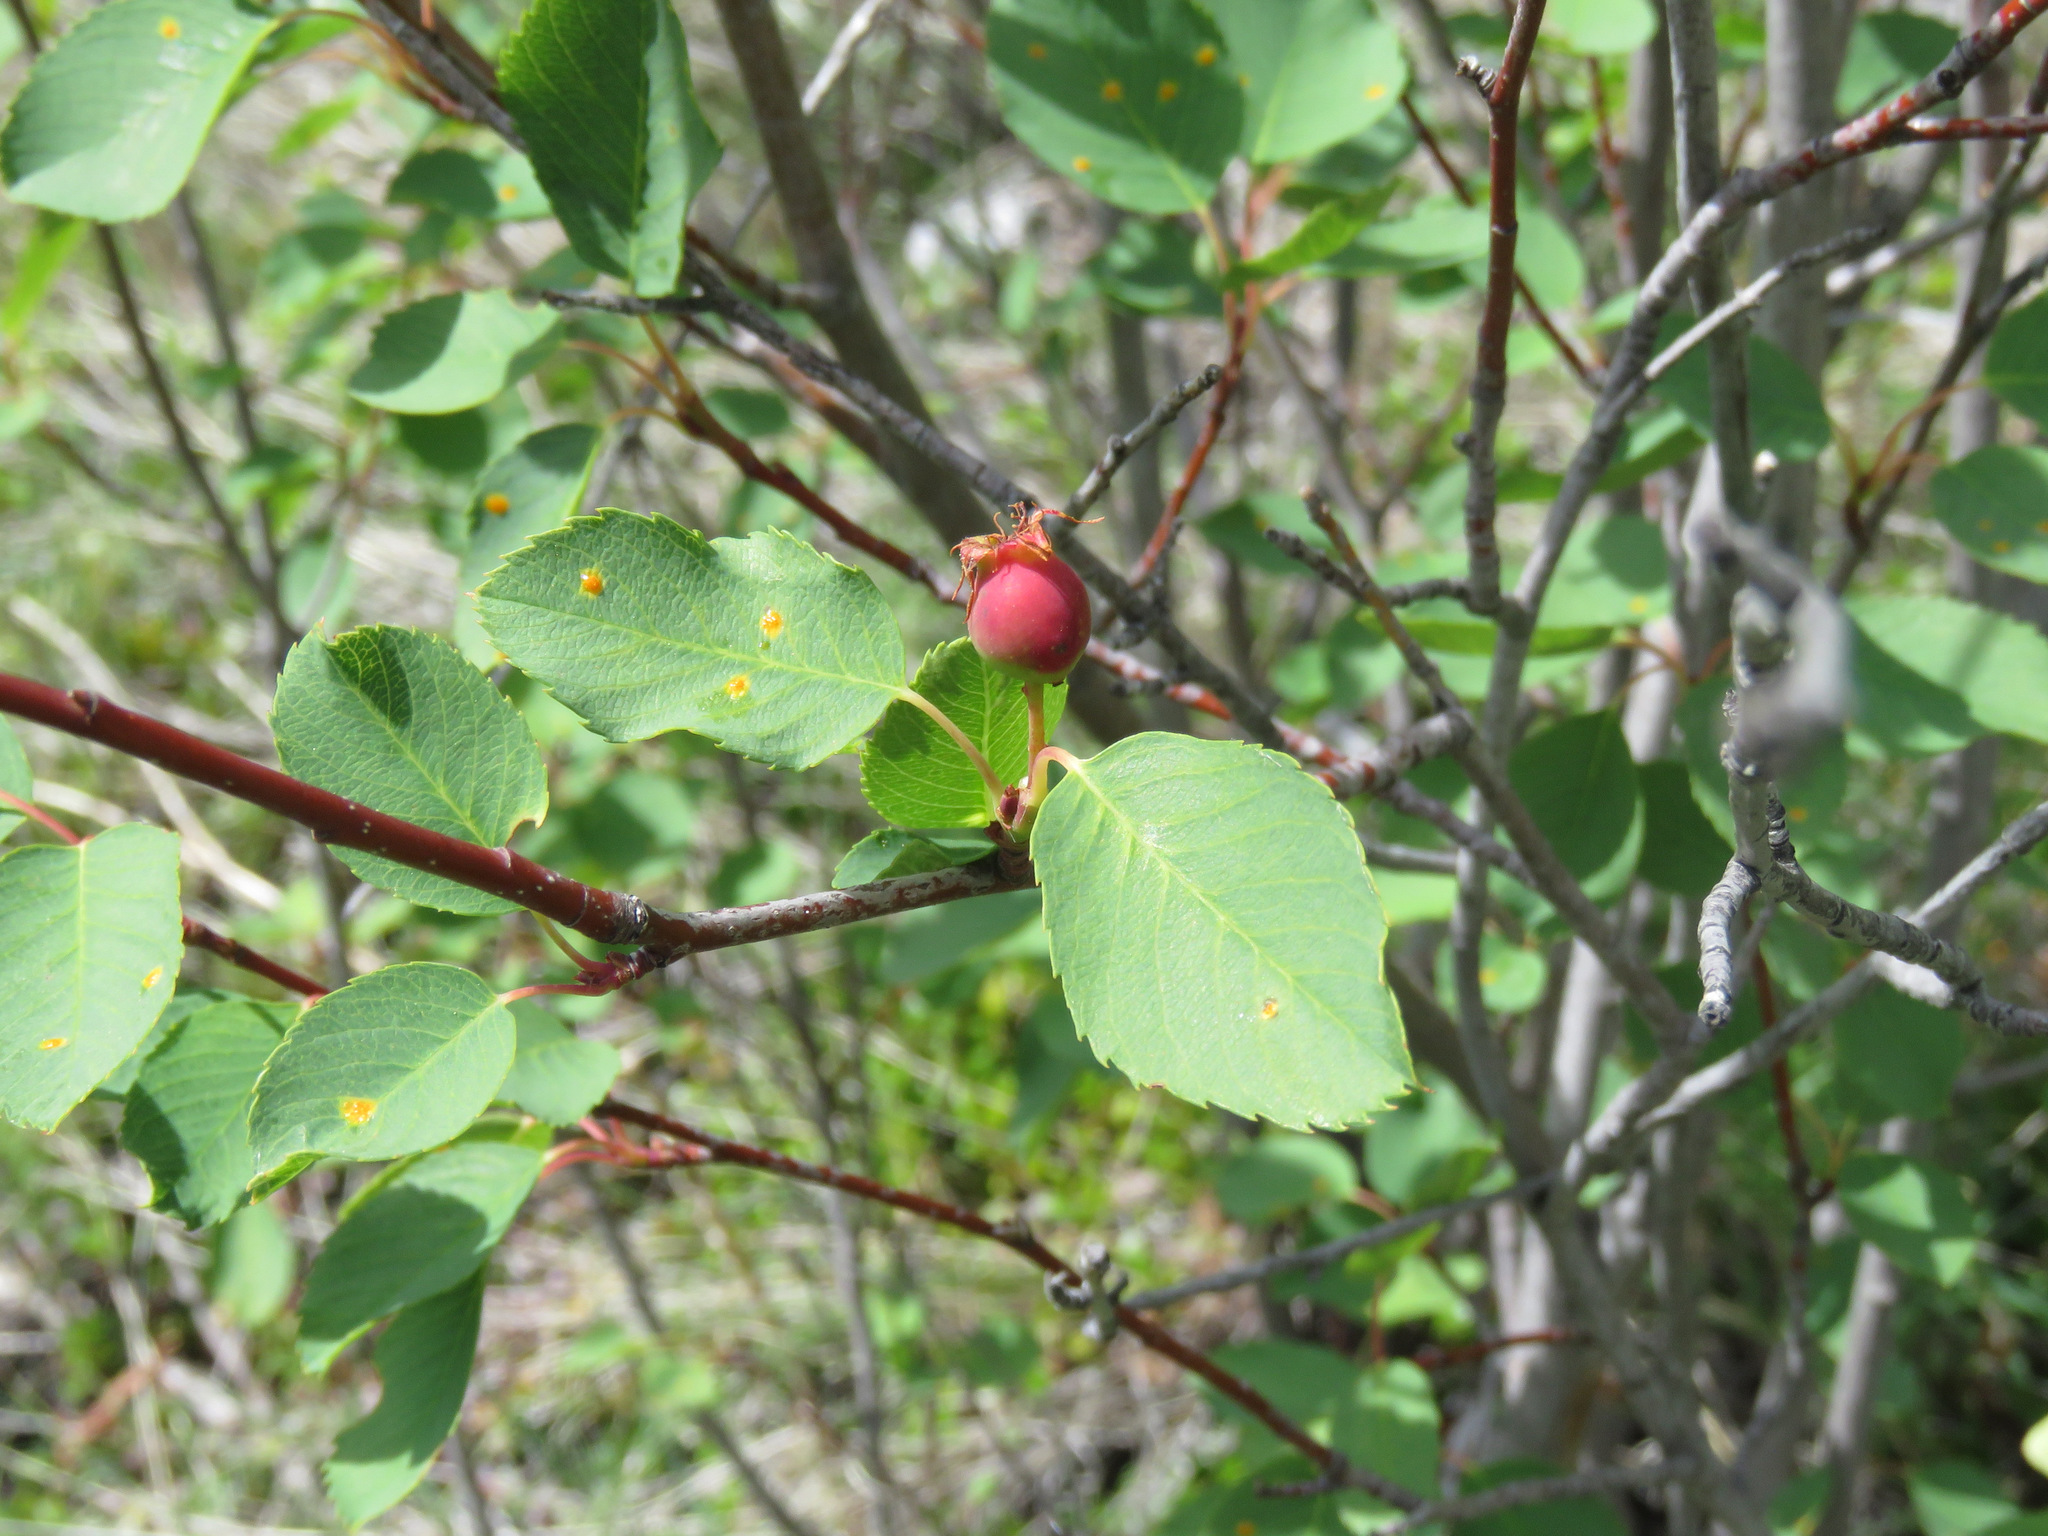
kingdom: Plantae
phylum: Tracheophyta
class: Magnoliopsida
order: Rosales
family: Rosaceae
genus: Amelanchier
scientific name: Amelanchier alnifolia
